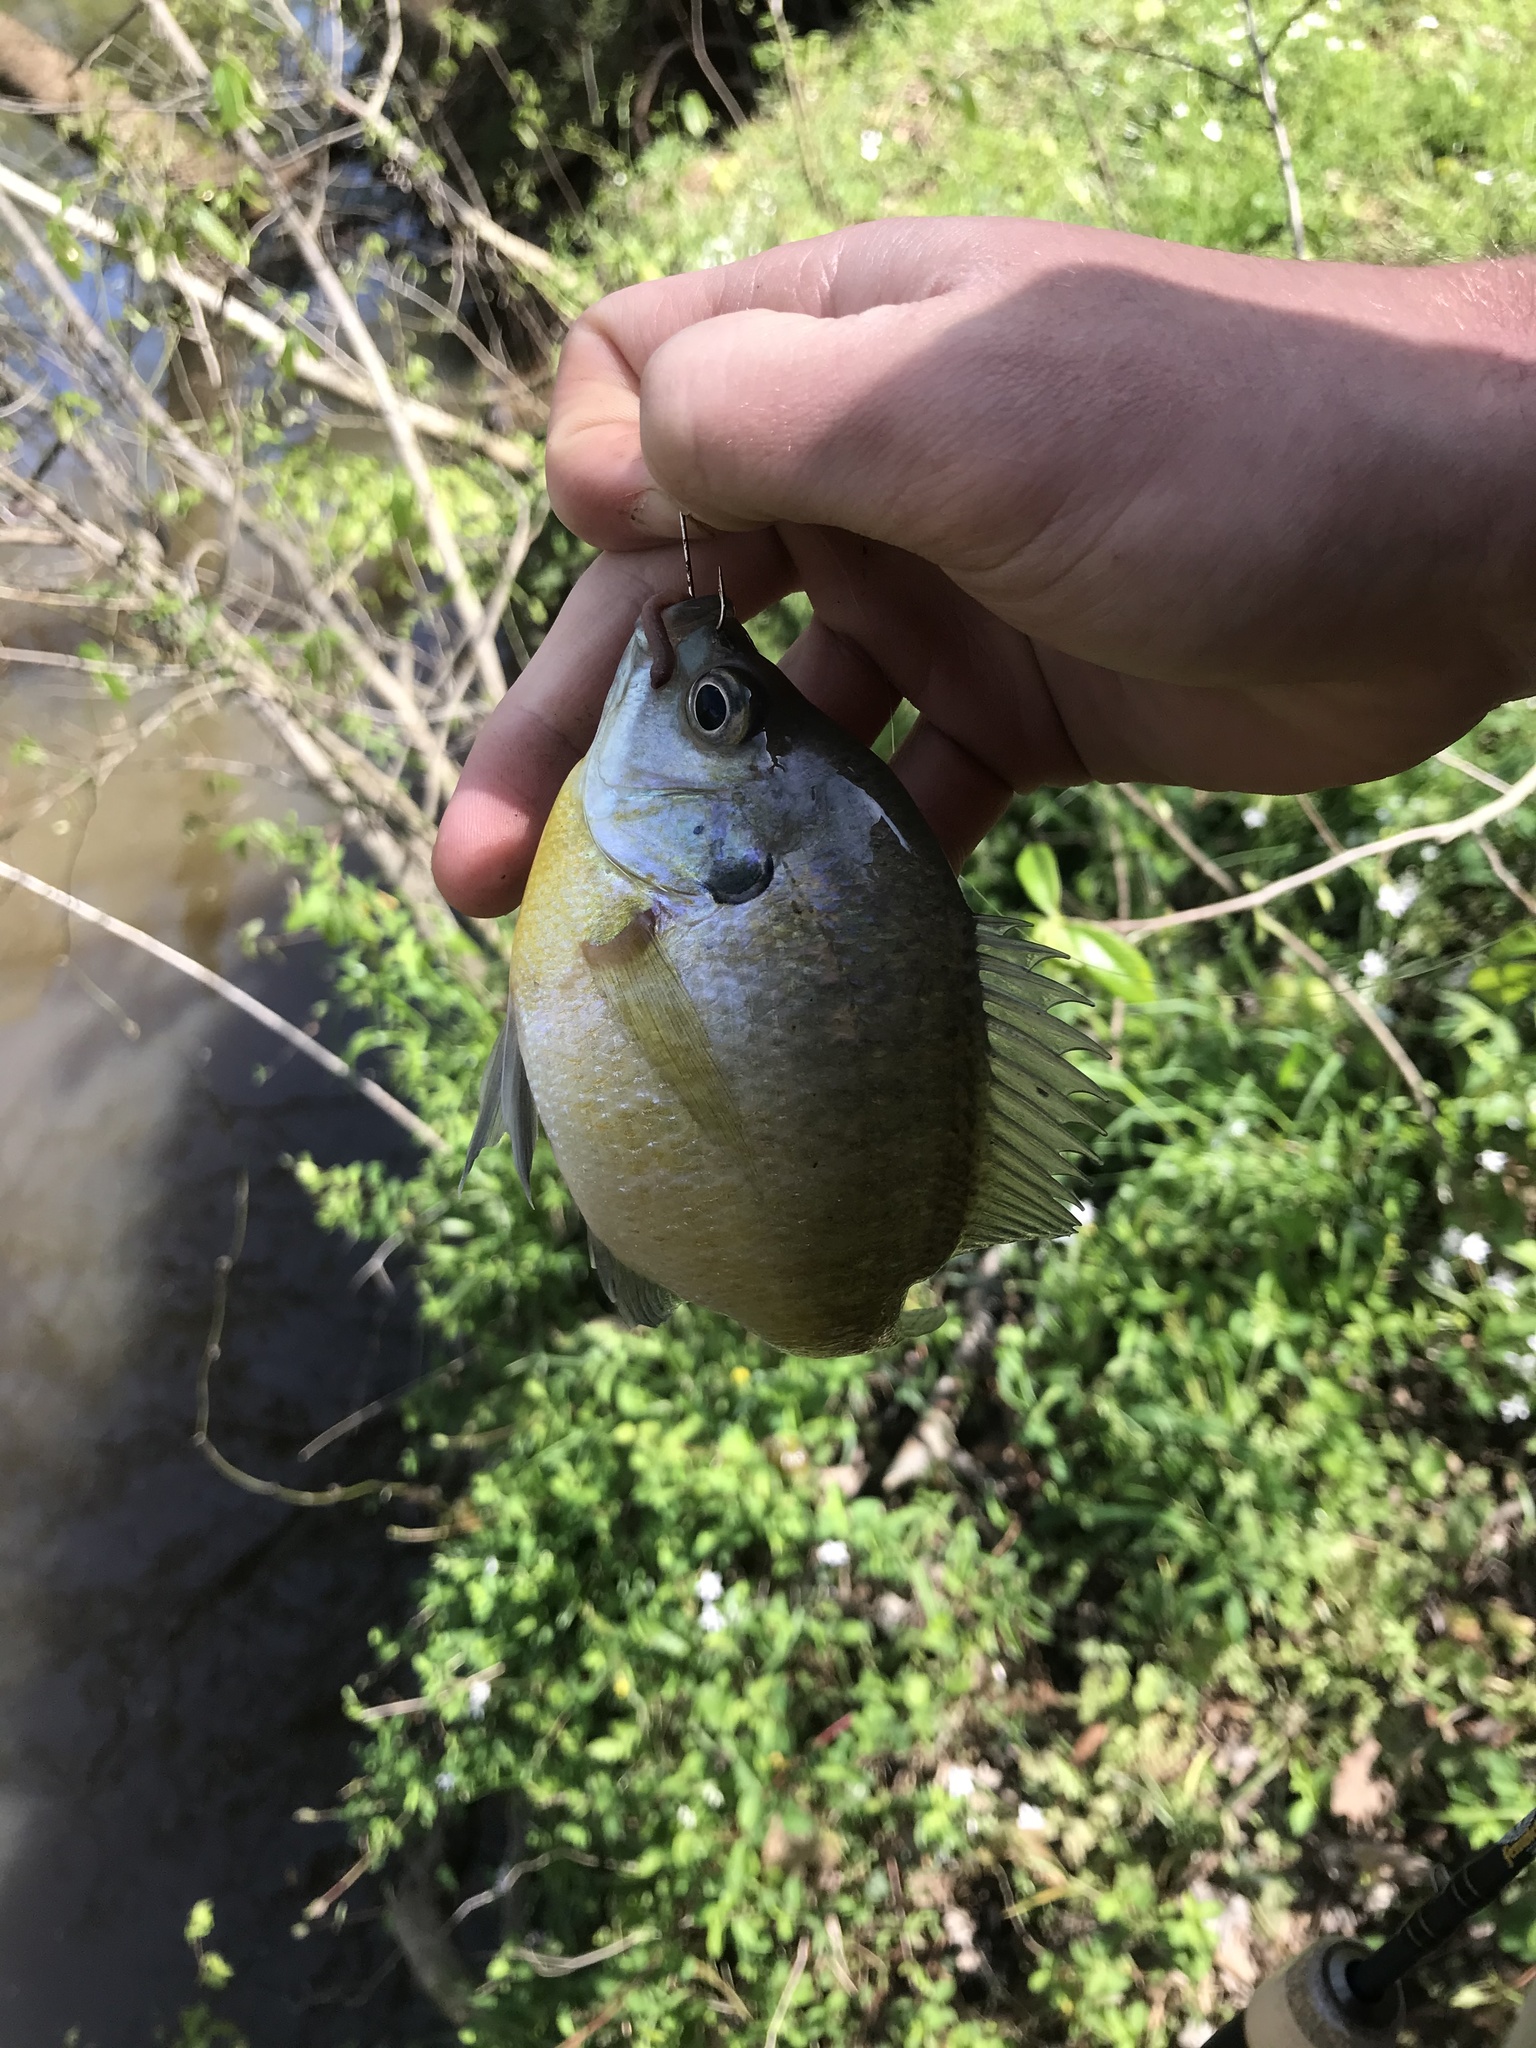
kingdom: Animalia
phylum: Chordata
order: Perciformes
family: Centrarchidae
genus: Lepomis
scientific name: Lepomis macrochirus
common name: Bluegill
